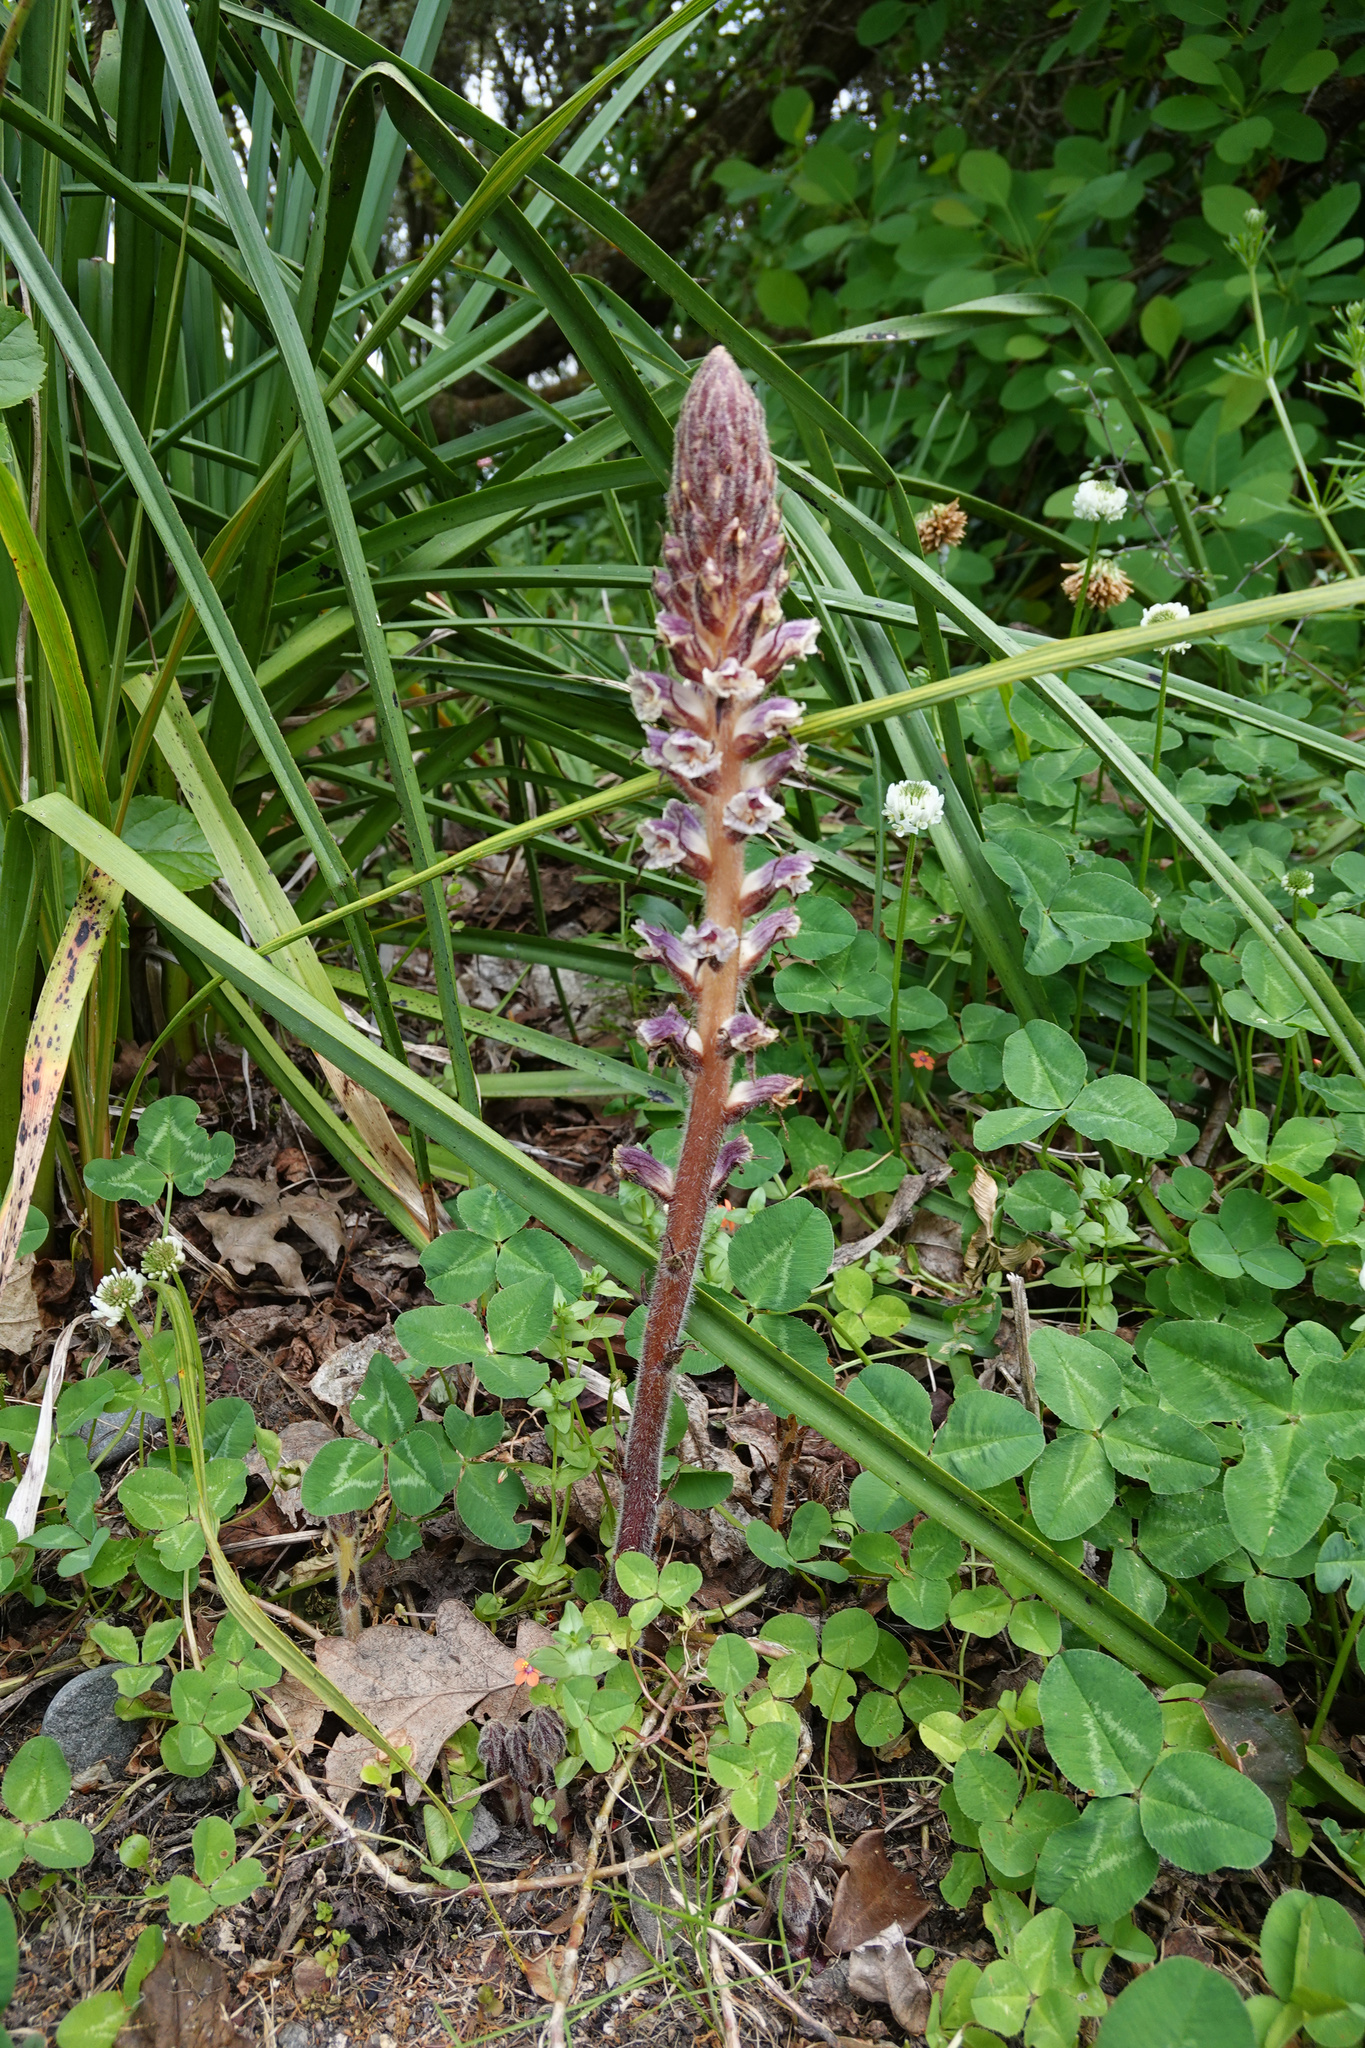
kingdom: Plantae
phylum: Tracheophyta
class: Magnoliopsida
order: Lamiales
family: Orobanchaceae
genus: Orobanche
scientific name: Orobanche minor
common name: Common broomrape
